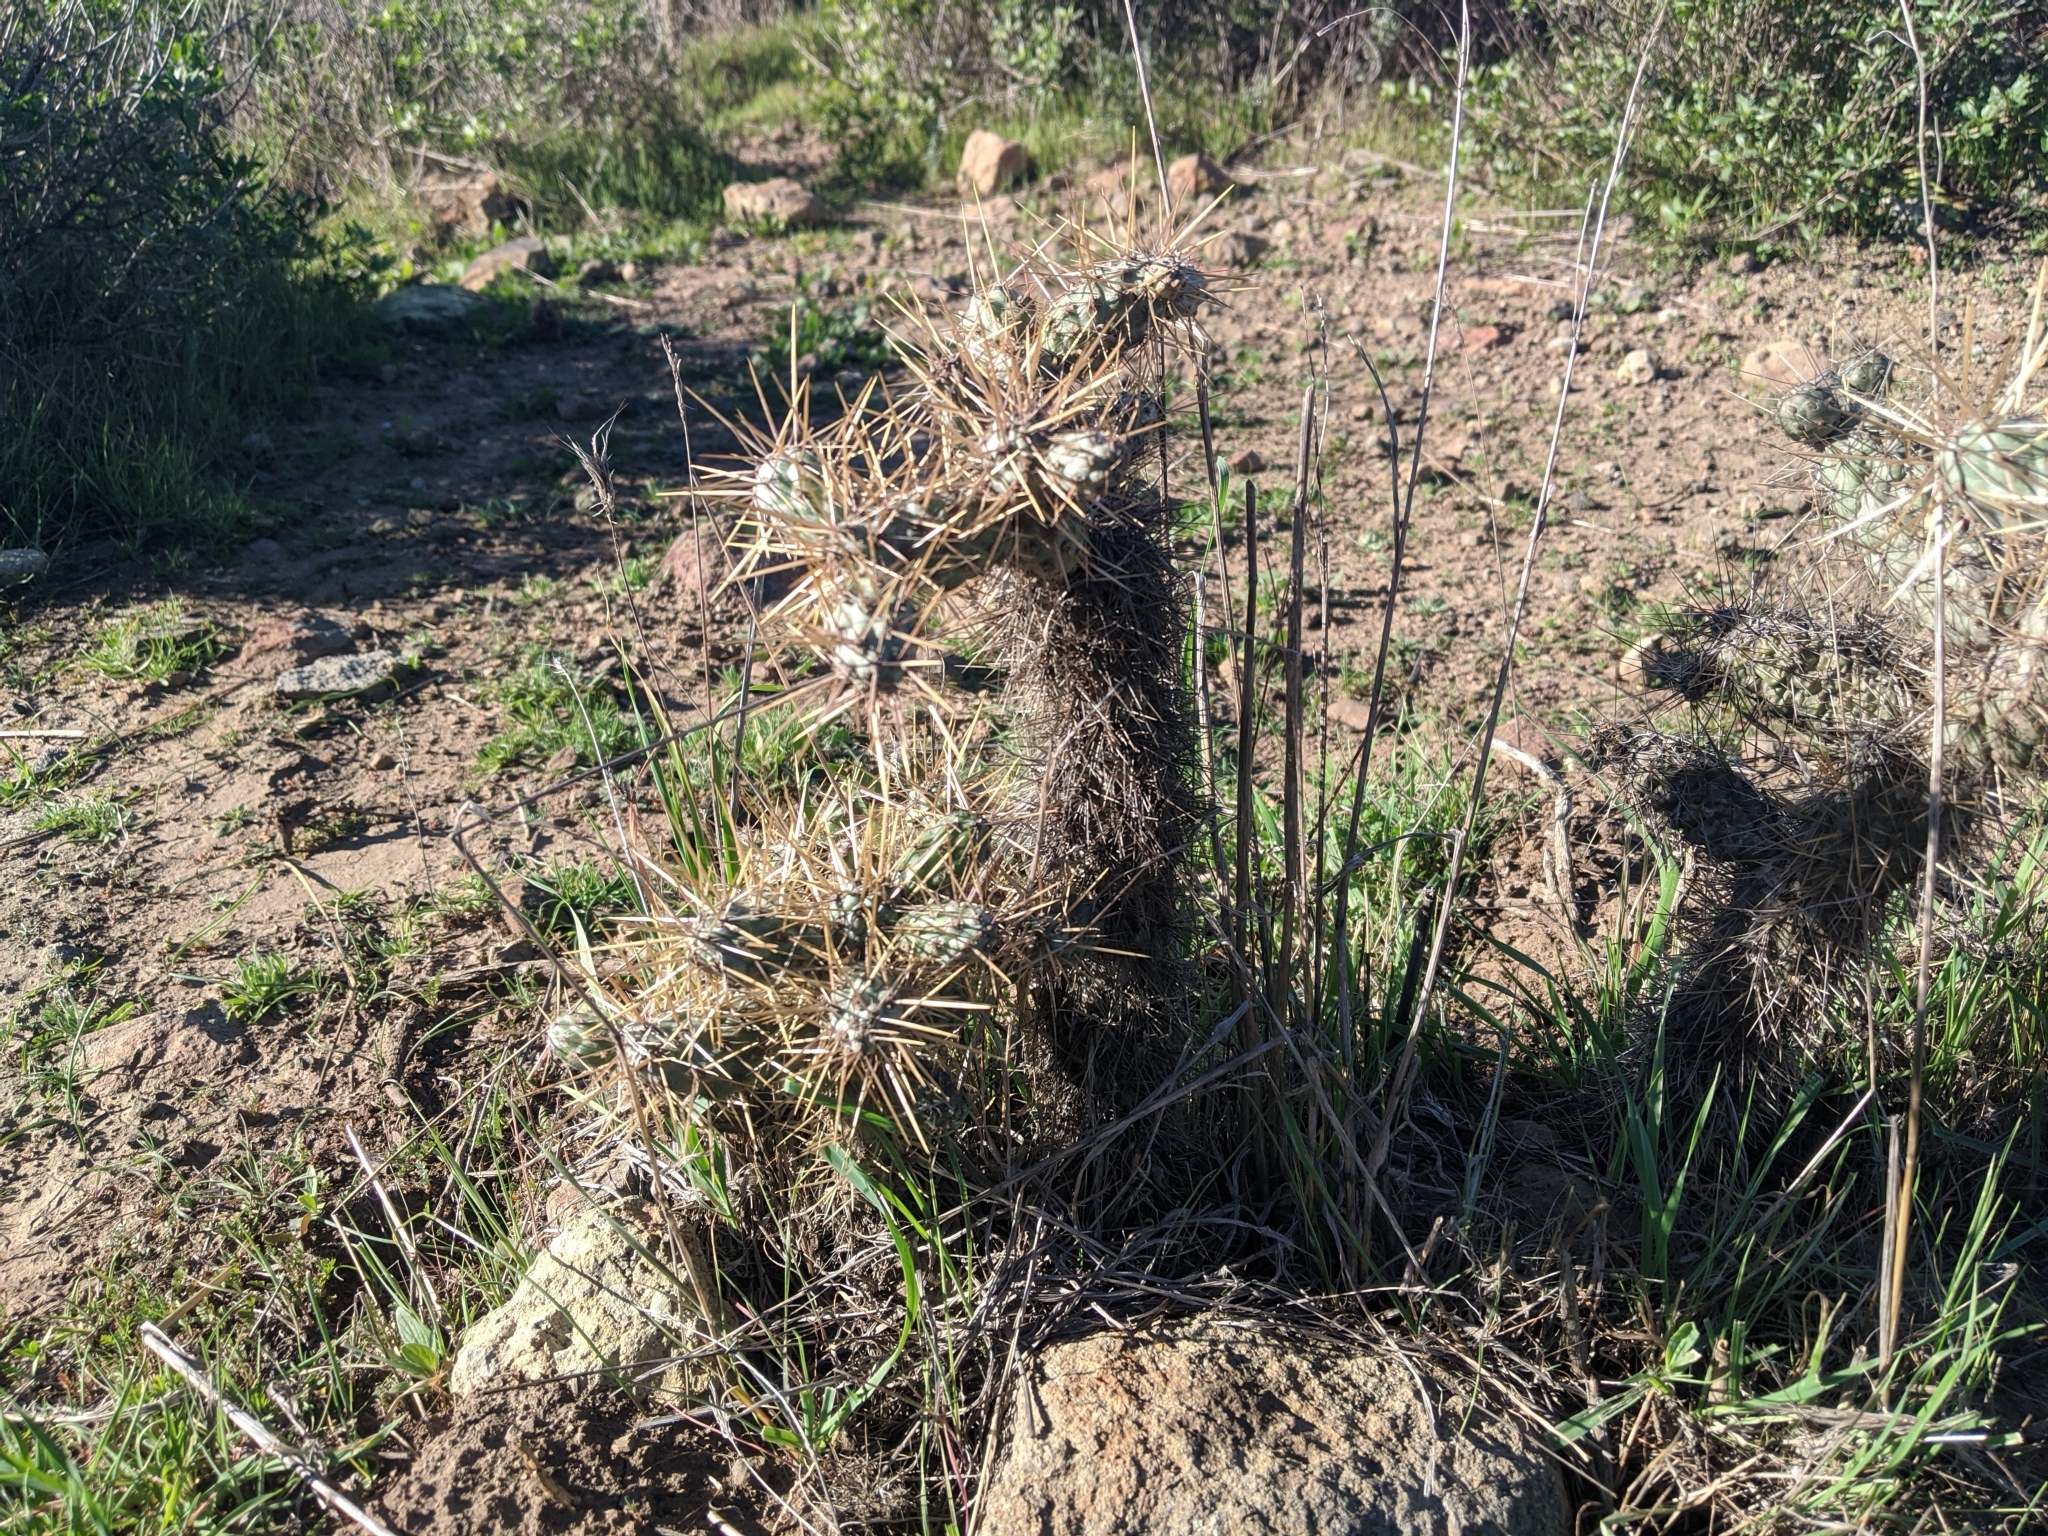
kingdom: Plantae
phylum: Tracheophyta
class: Magnoliopsida
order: Caryophyllales
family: Cactaceae
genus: Cylindropuntia
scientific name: Cylindropuntia prolifera
